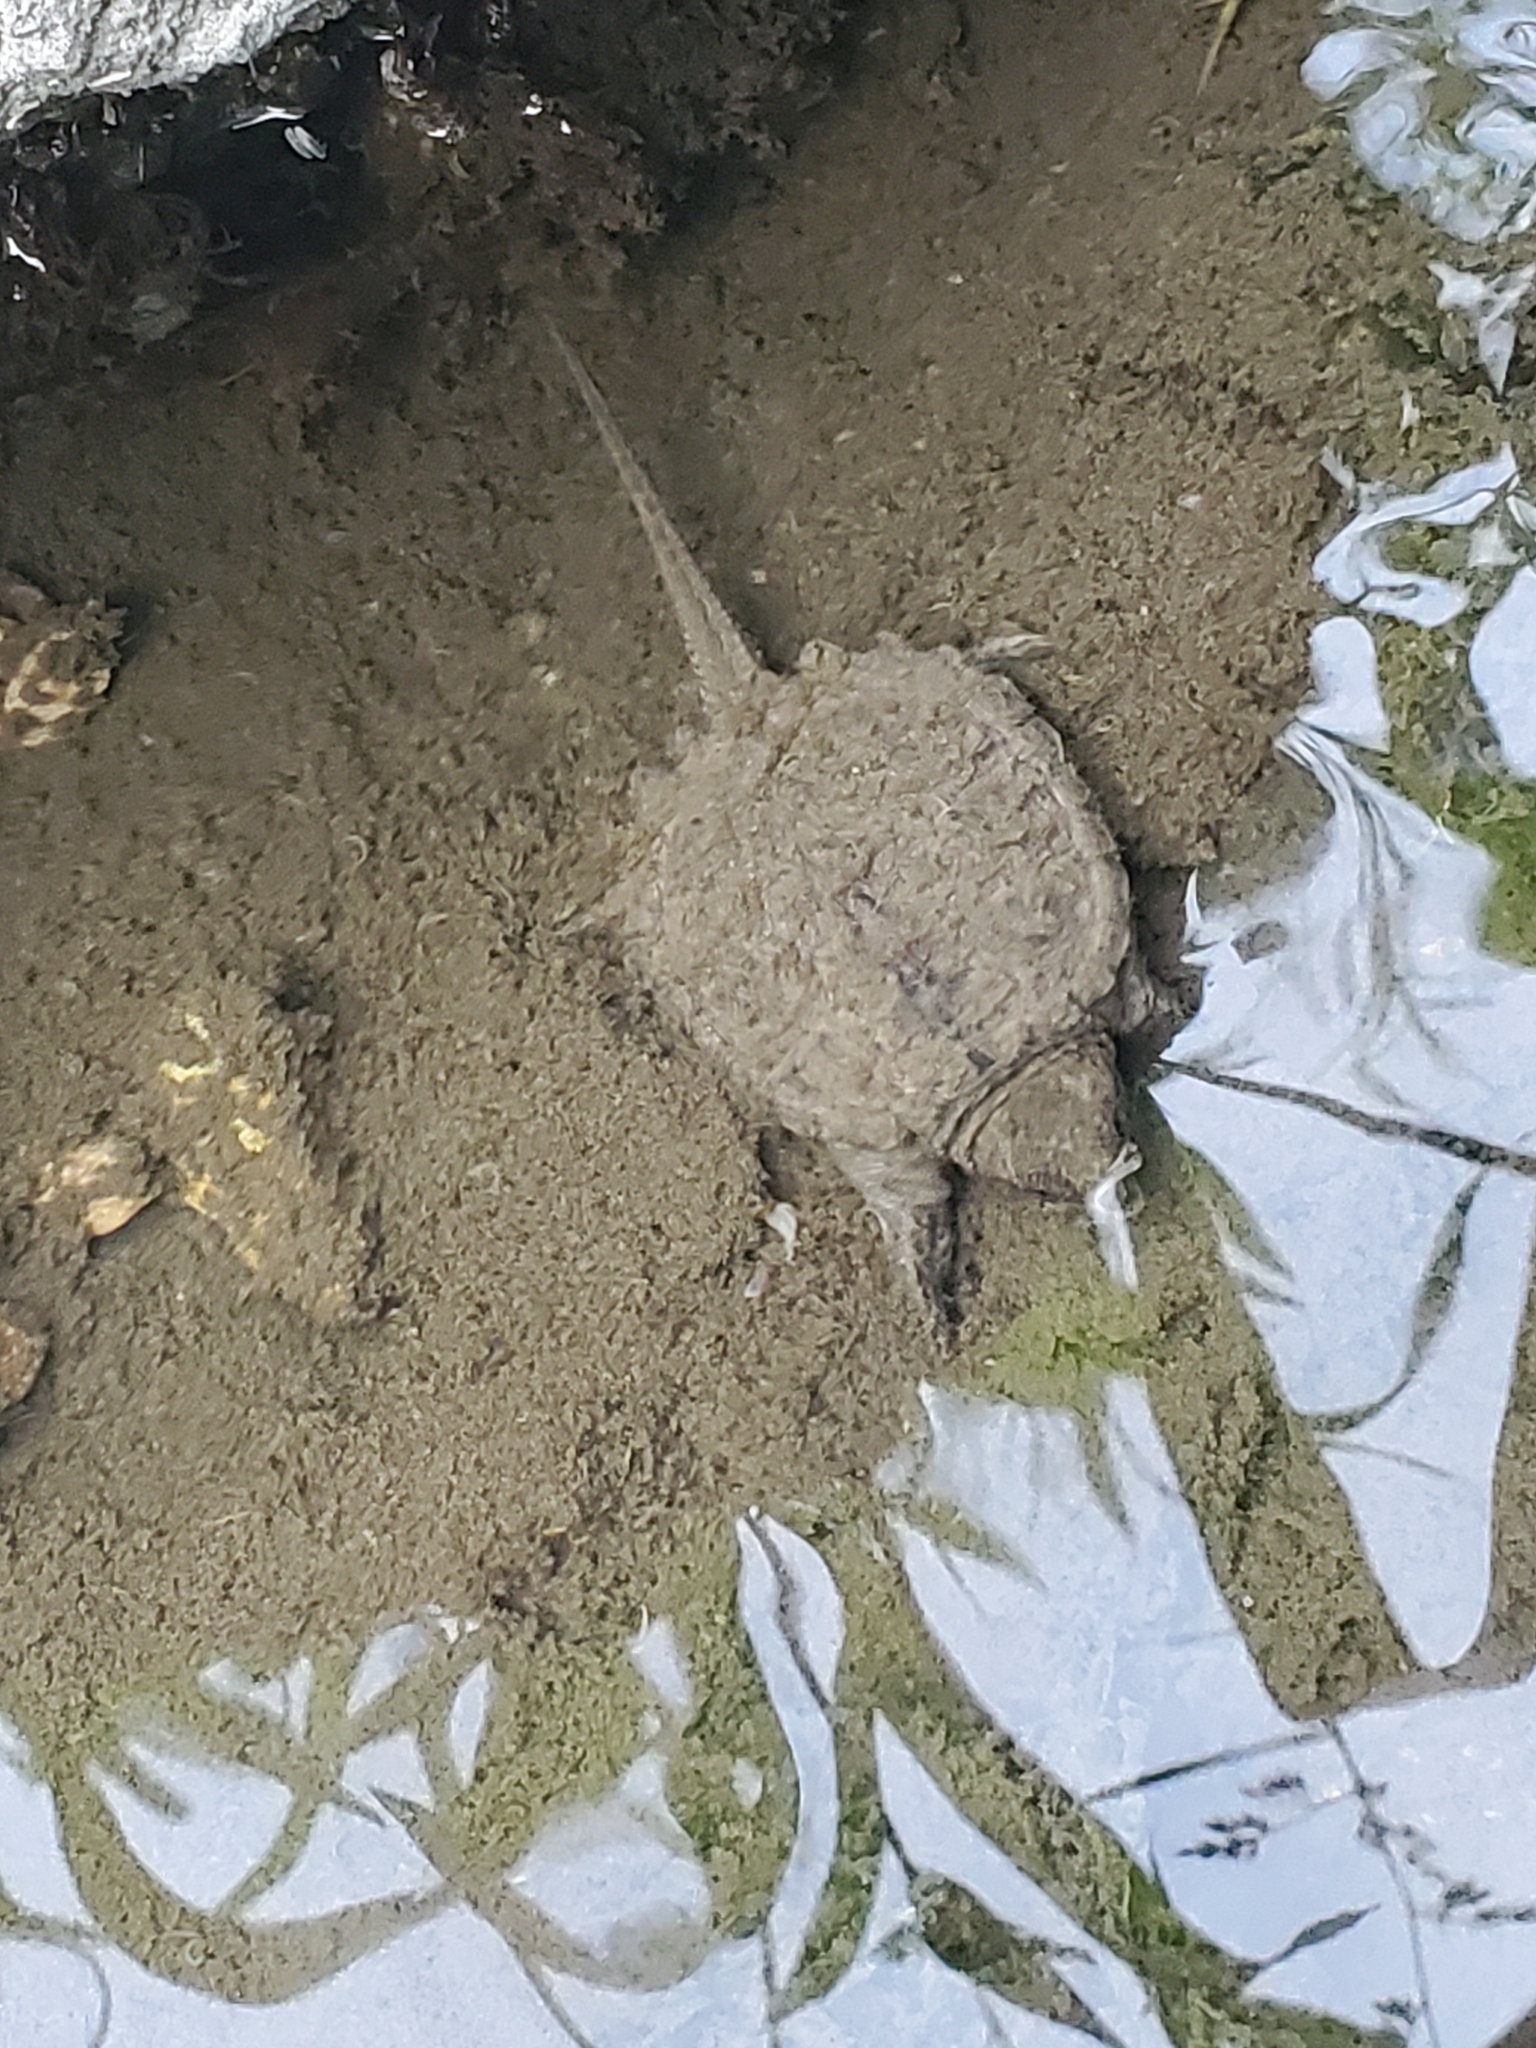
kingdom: Animalia
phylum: Chordata
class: Testudines
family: Chelydridae
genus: Chelydra
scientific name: Chelydra serpentina
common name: Common snapping turtle
